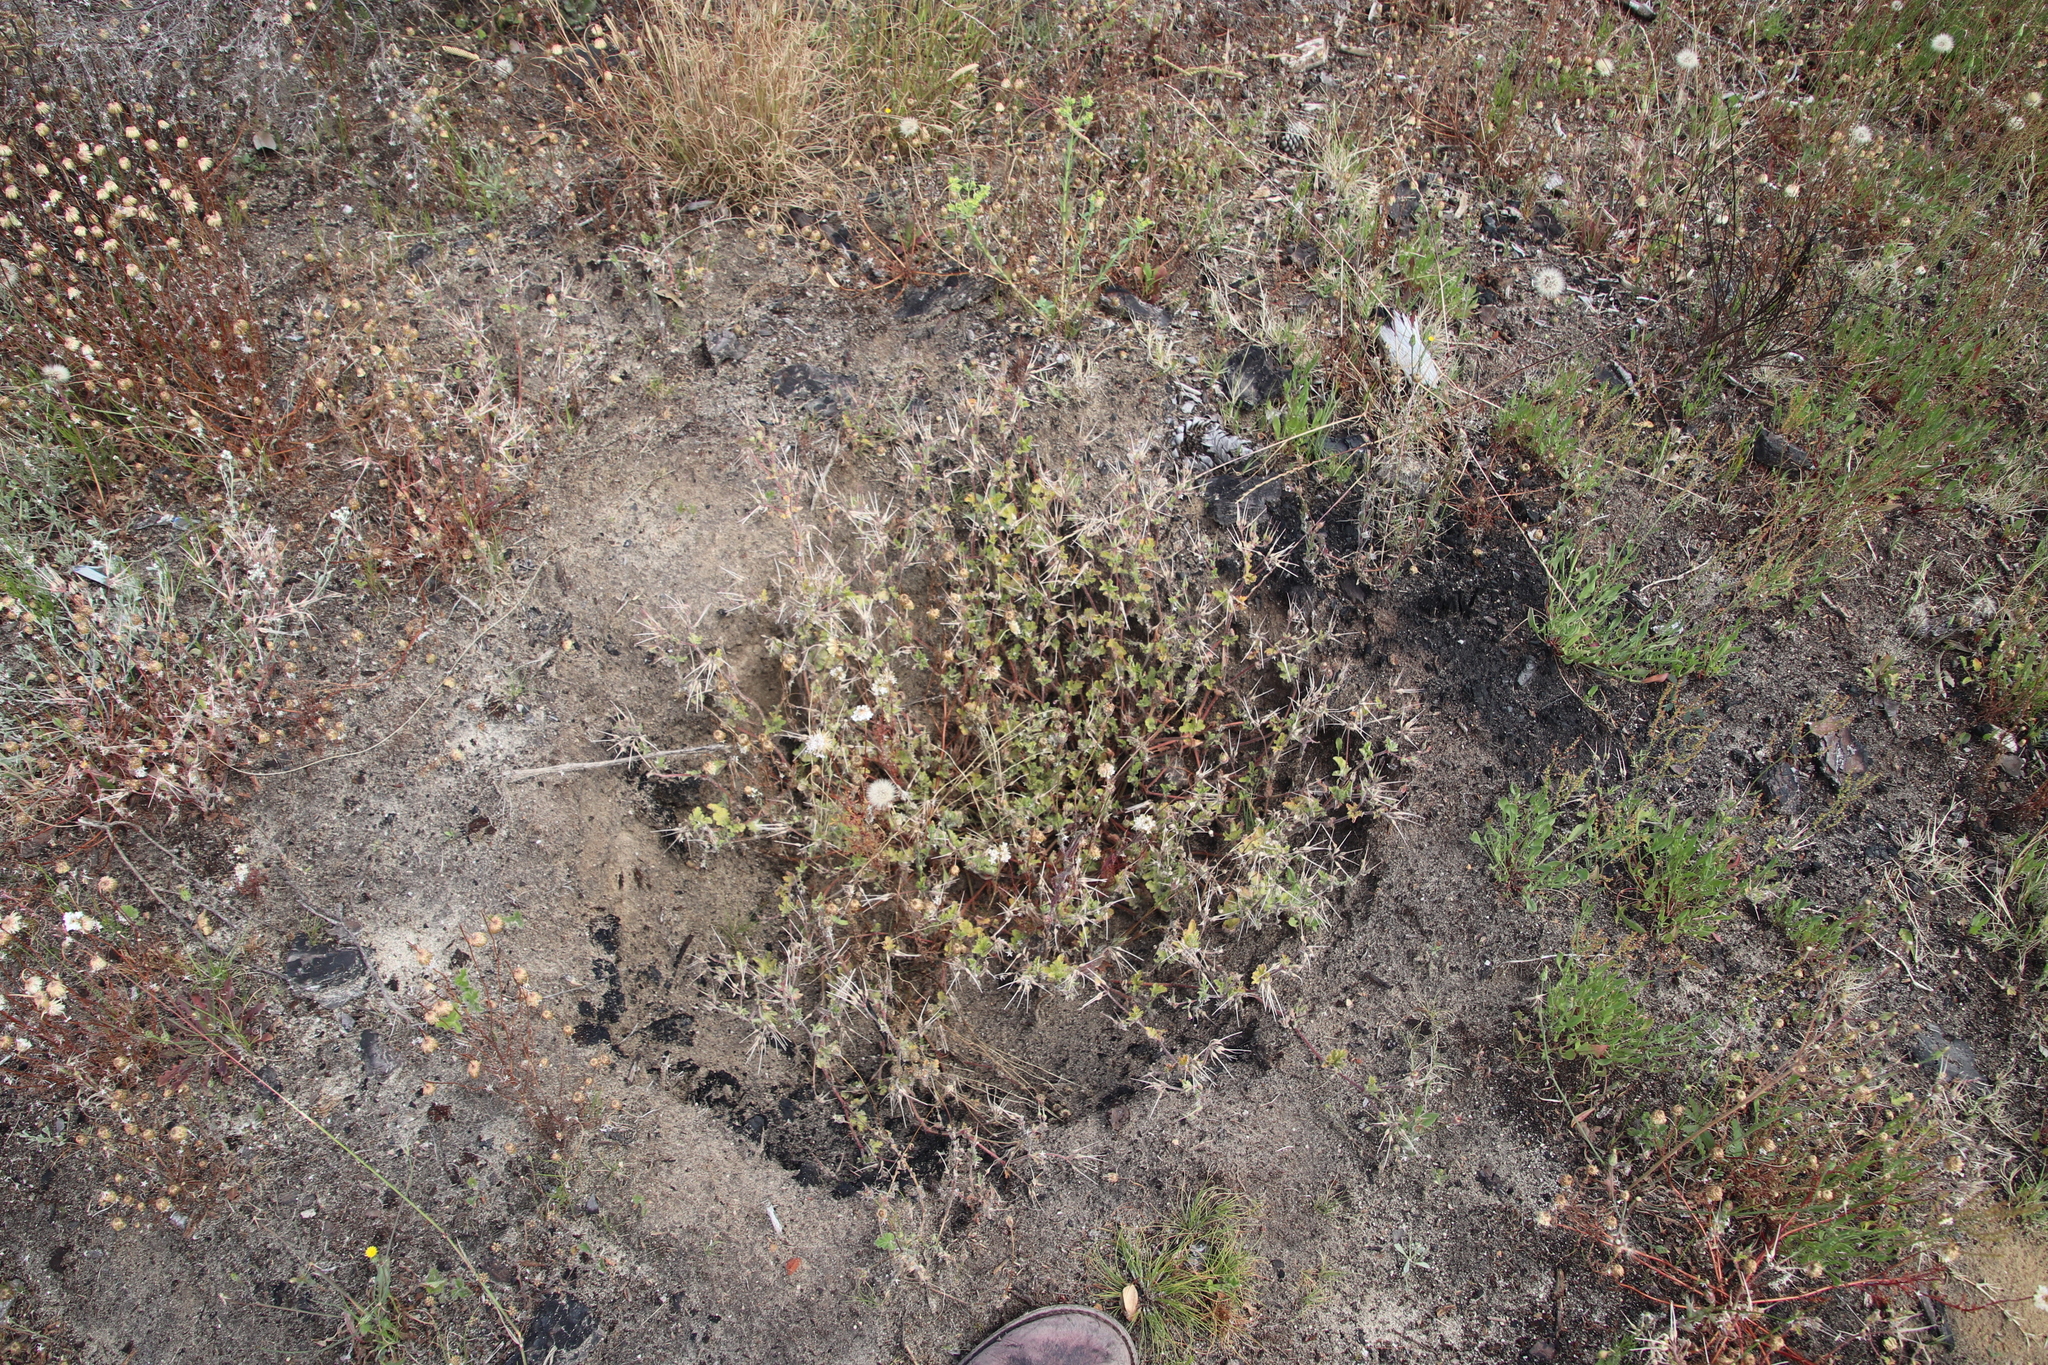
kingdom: Plantae
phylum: Tracheophyta
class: Magnoliopsida
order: Geraniales
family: Geraniaceae
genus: Pelargonium
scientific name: Pelargonium althaeoides
